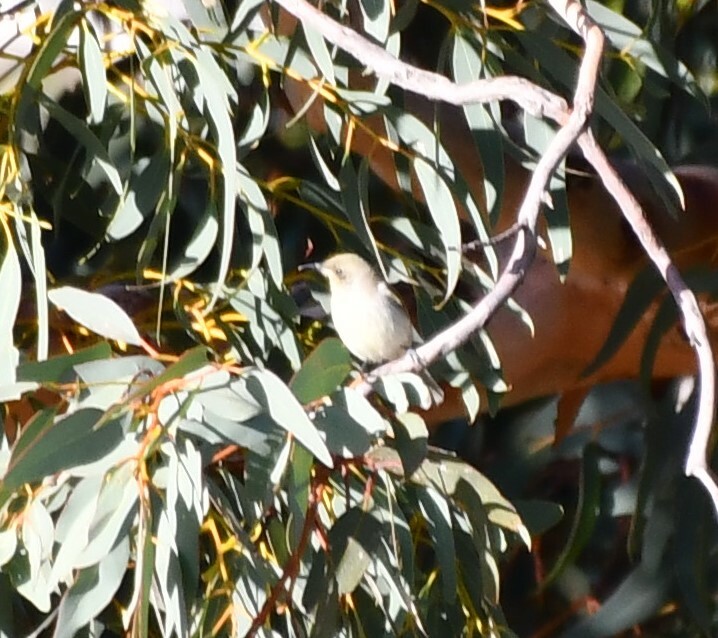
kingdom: Animalia
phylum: Chordata
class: Aves
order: Passeriformes
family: Meliphagidae
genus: Lichmera
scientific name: Lichmera indistincta
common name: Brown honeyeater
